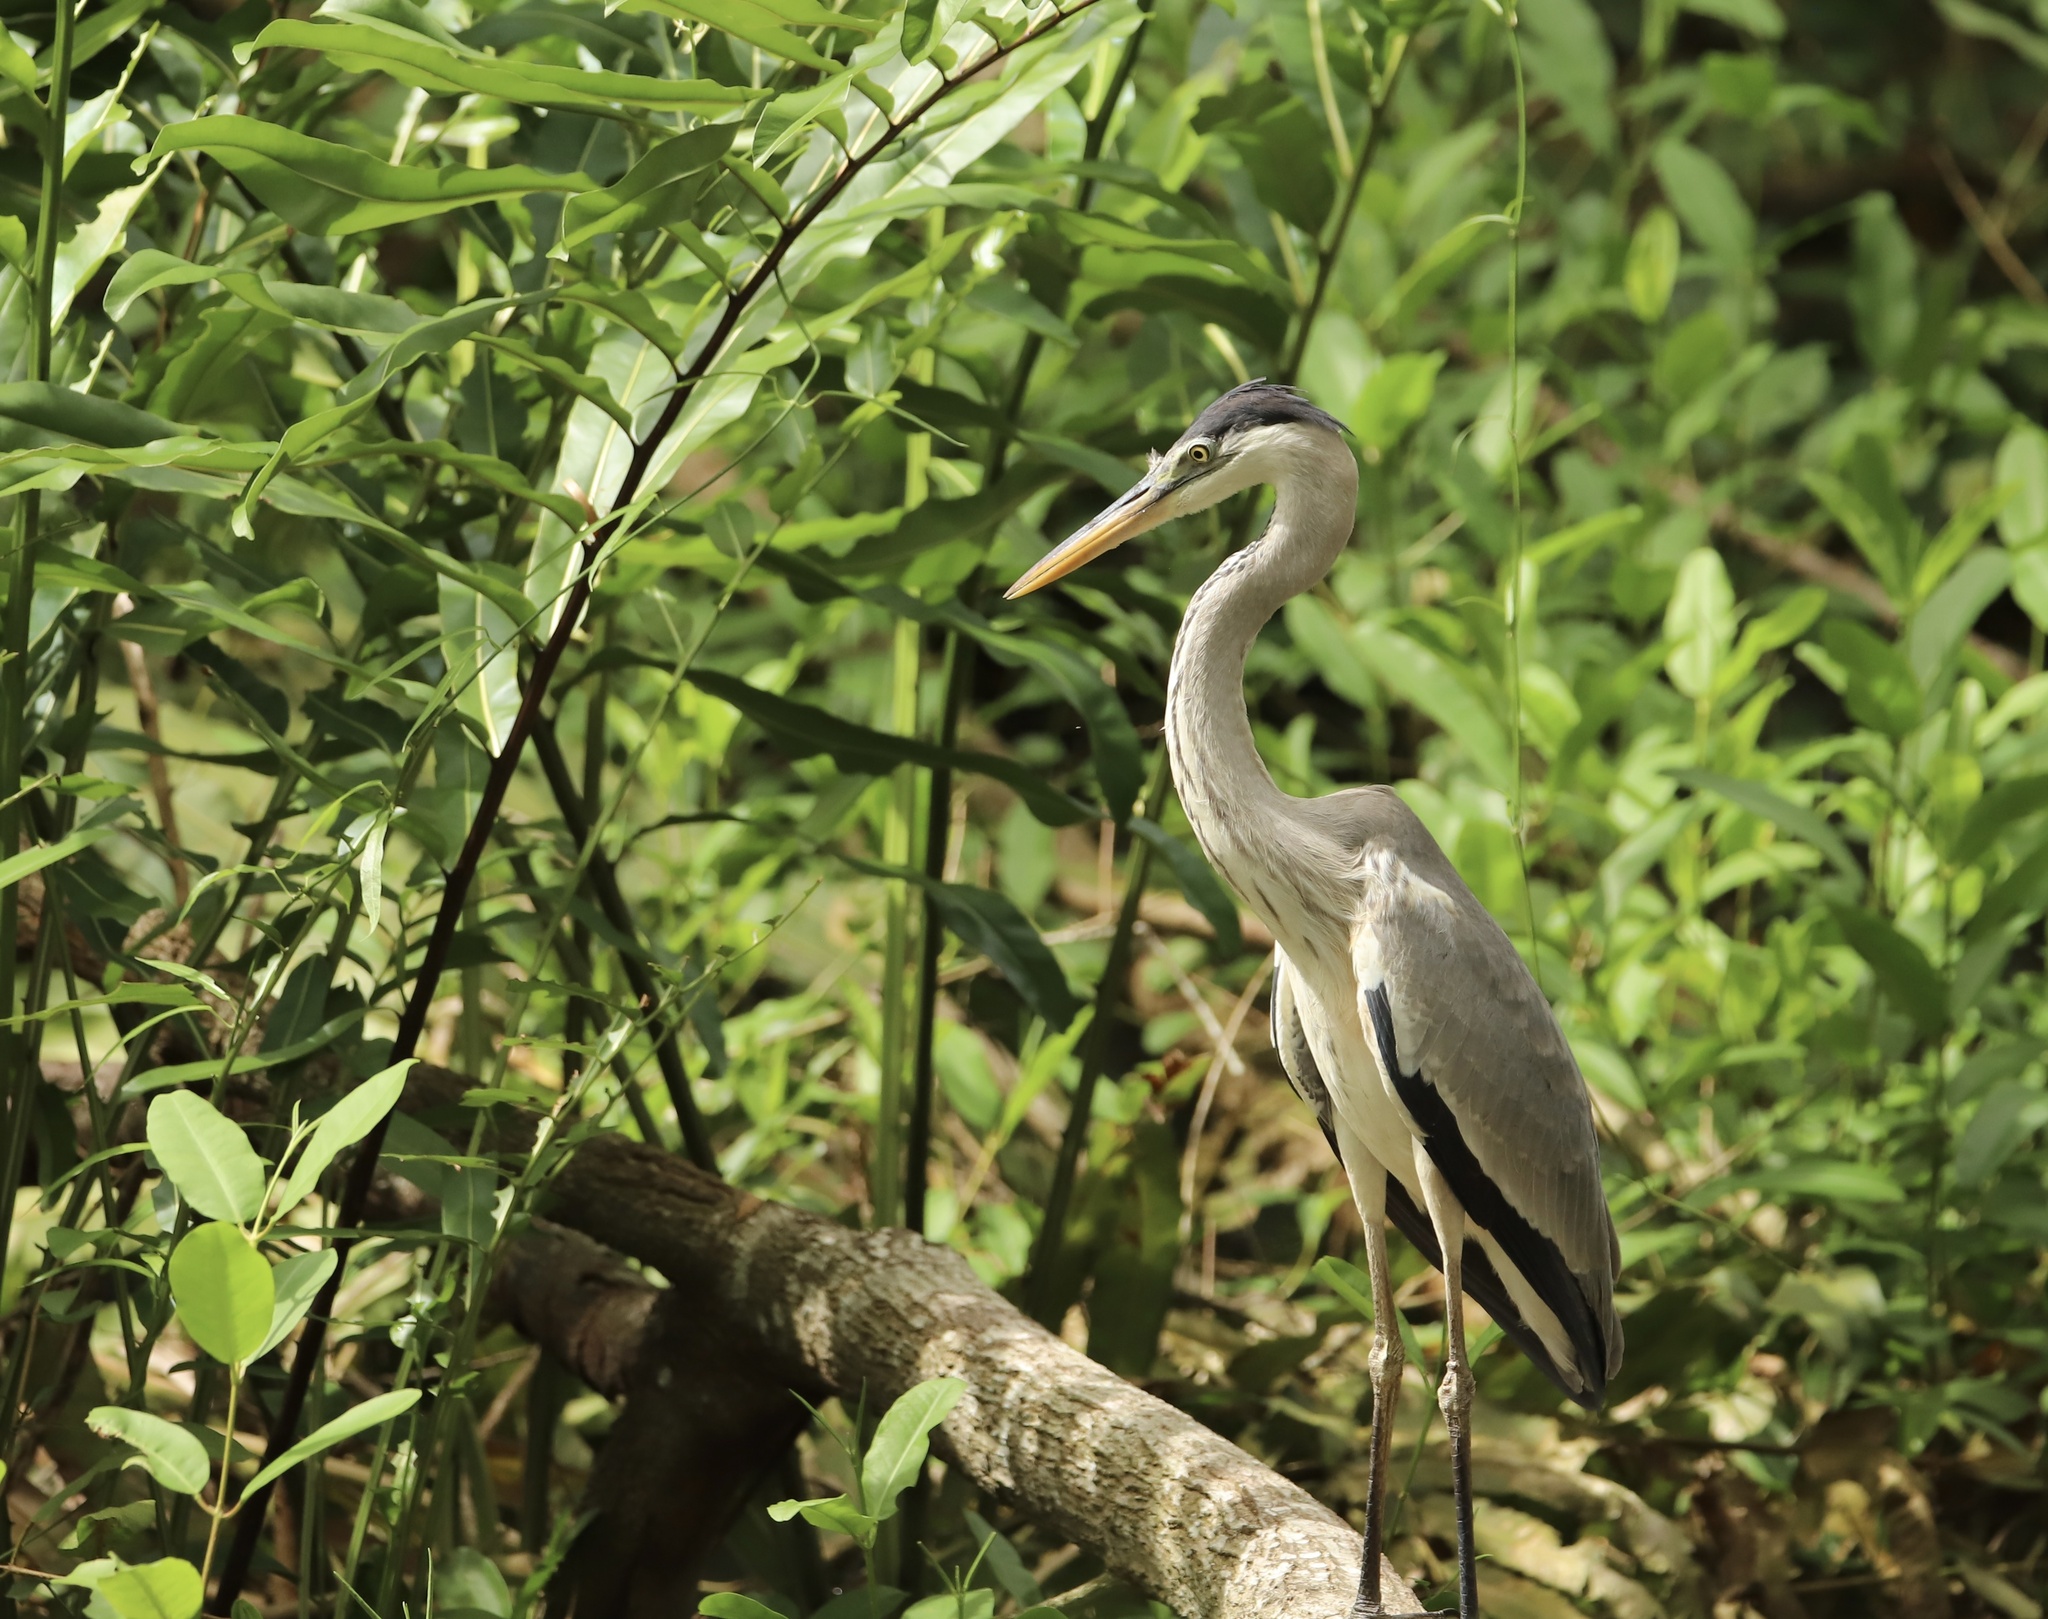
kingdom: Animalia
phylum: Chordata
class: Aves
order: Pelecaniformes
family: Ardeidae
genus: Ardea
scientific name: Ardea cocoi
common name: Cocoi heron
